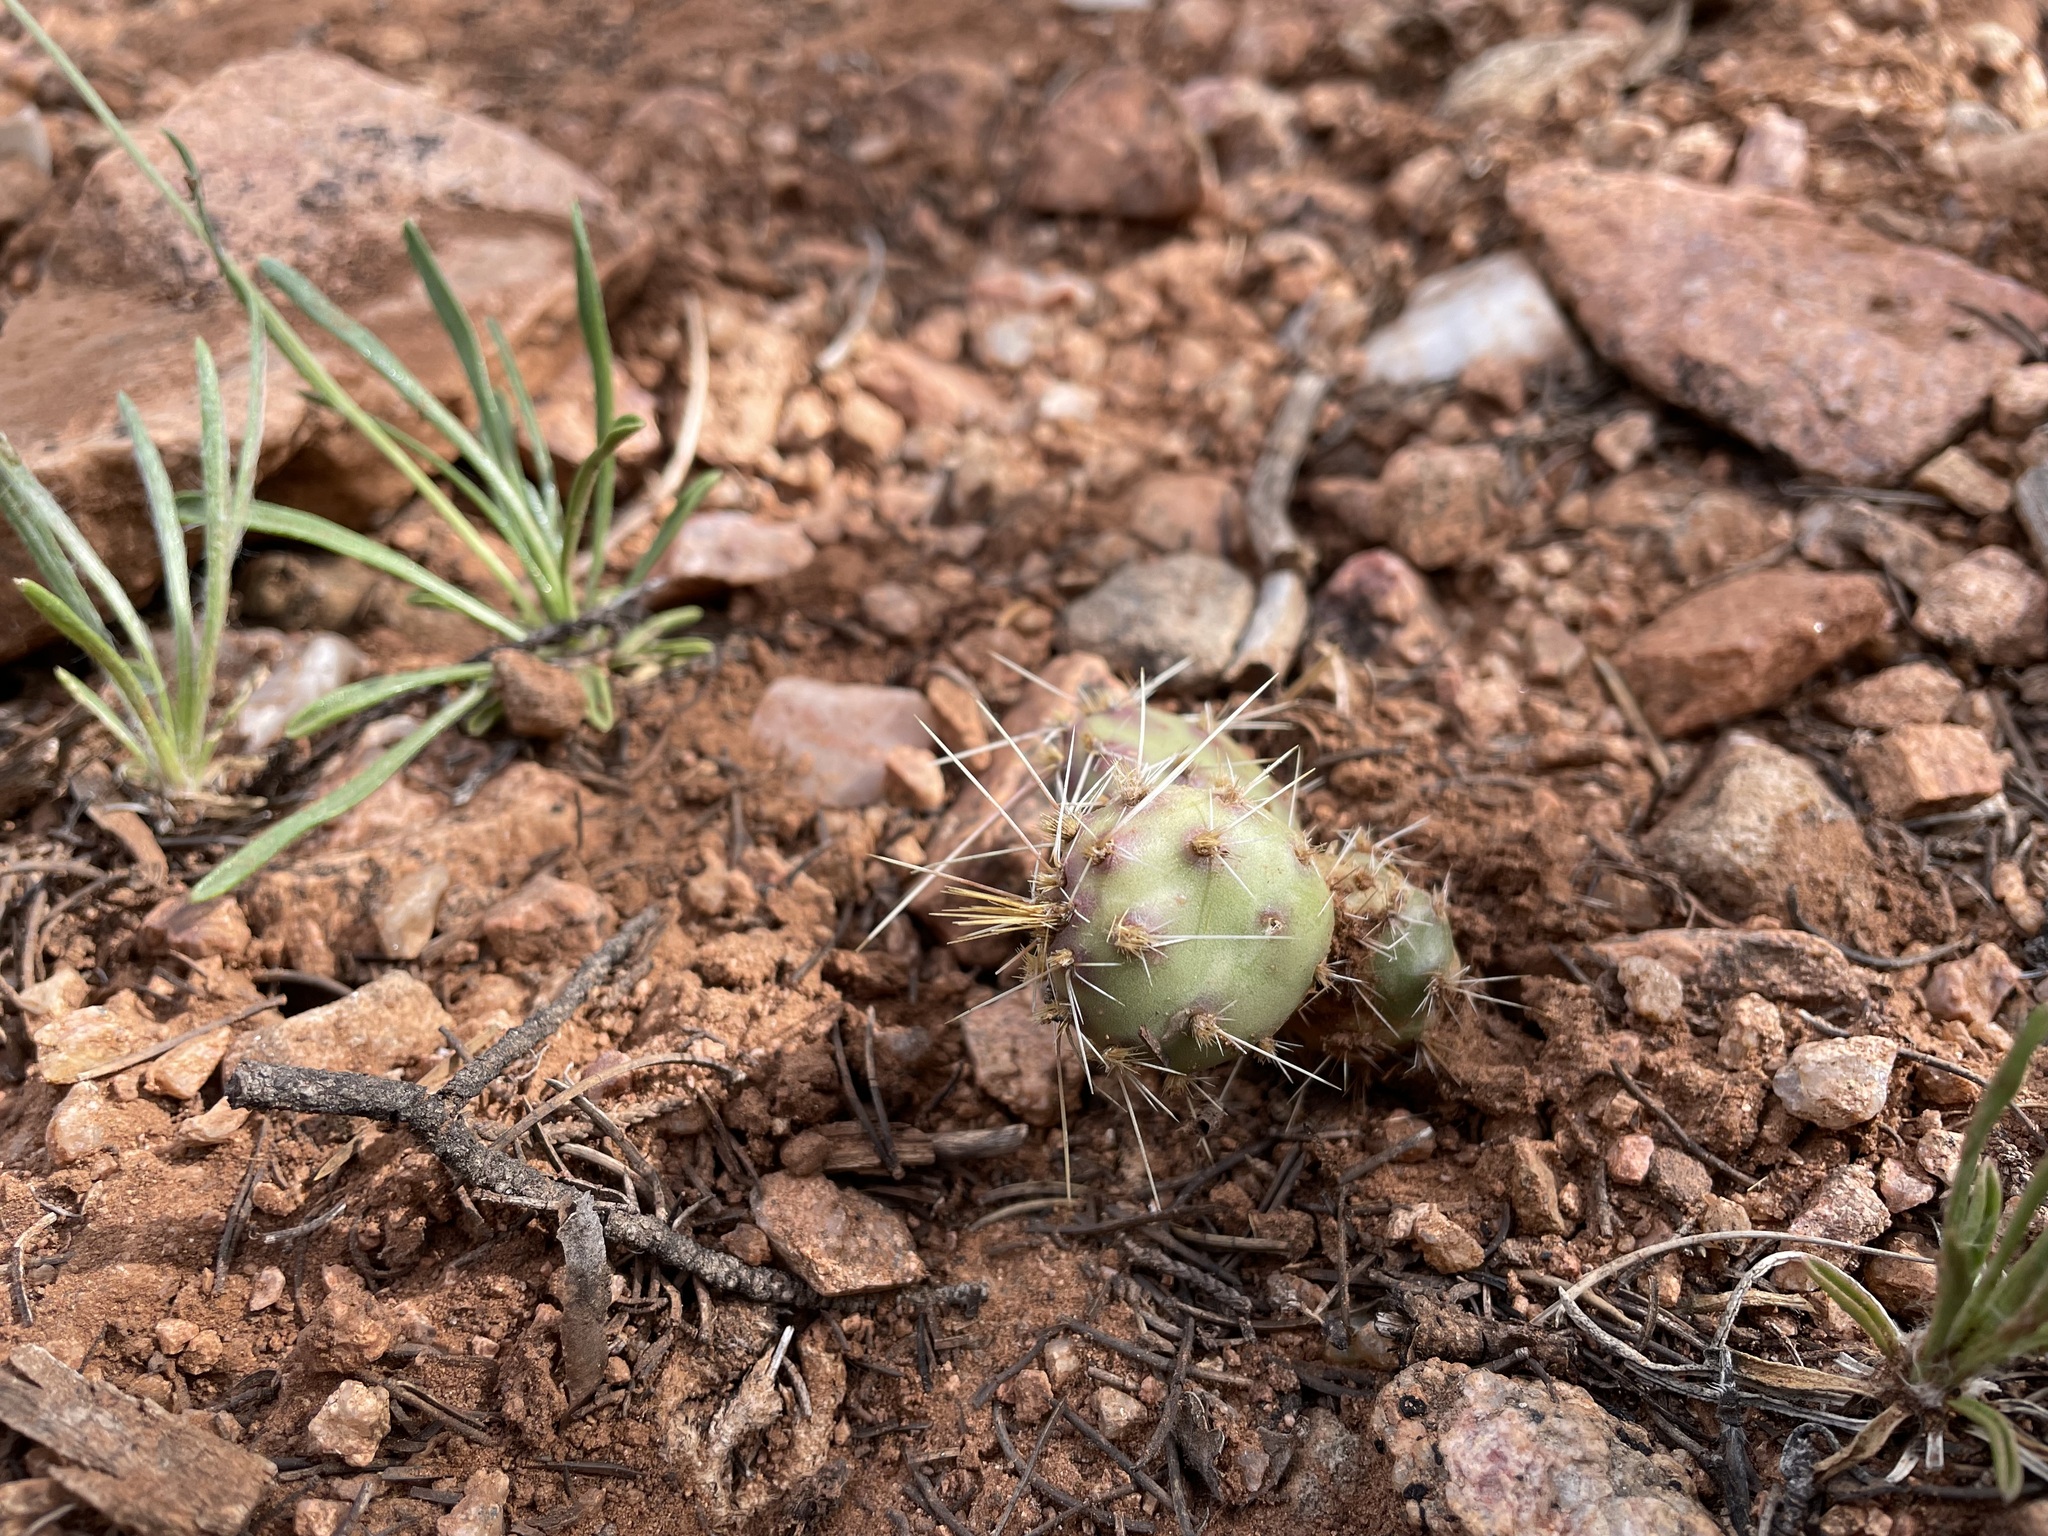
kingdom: Plantae
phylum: Tracheophyta
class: Magnoliopsida
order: Caryophyllales
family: Cactaceae
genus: Opuntia
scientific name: Opuntia fragilis
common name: Brittle cactus
